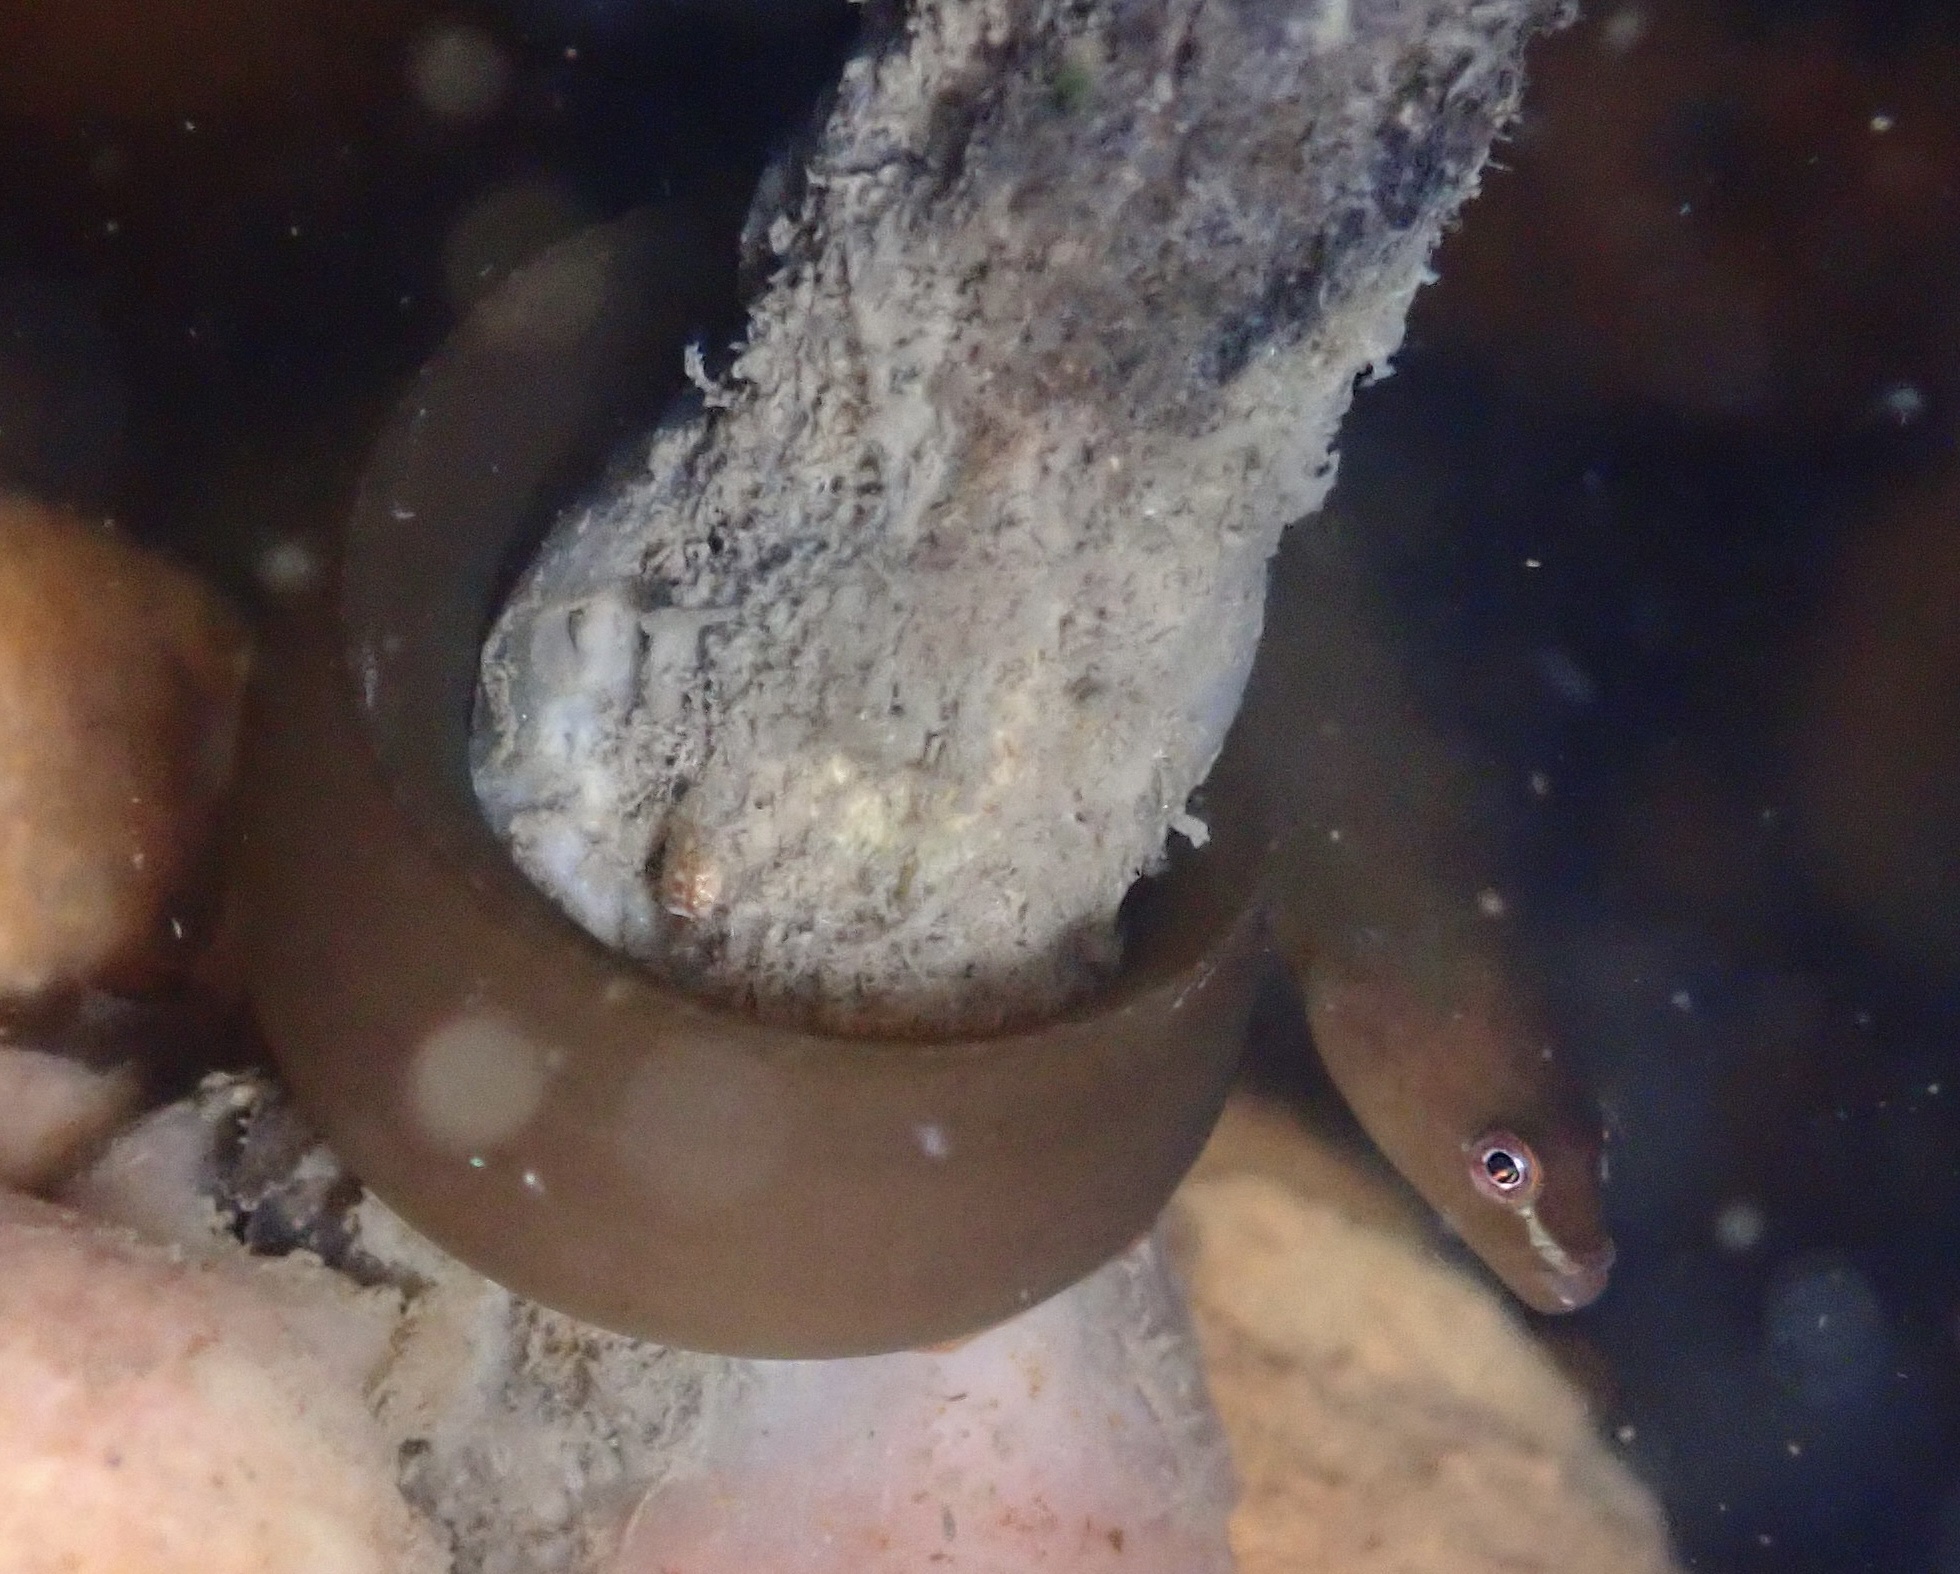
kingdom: Animalia
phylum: Chordata
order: Perciformes
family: Pholidae
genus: Apodichthys
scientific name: Apodichthys fucorum
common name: Rockweed gunnel
